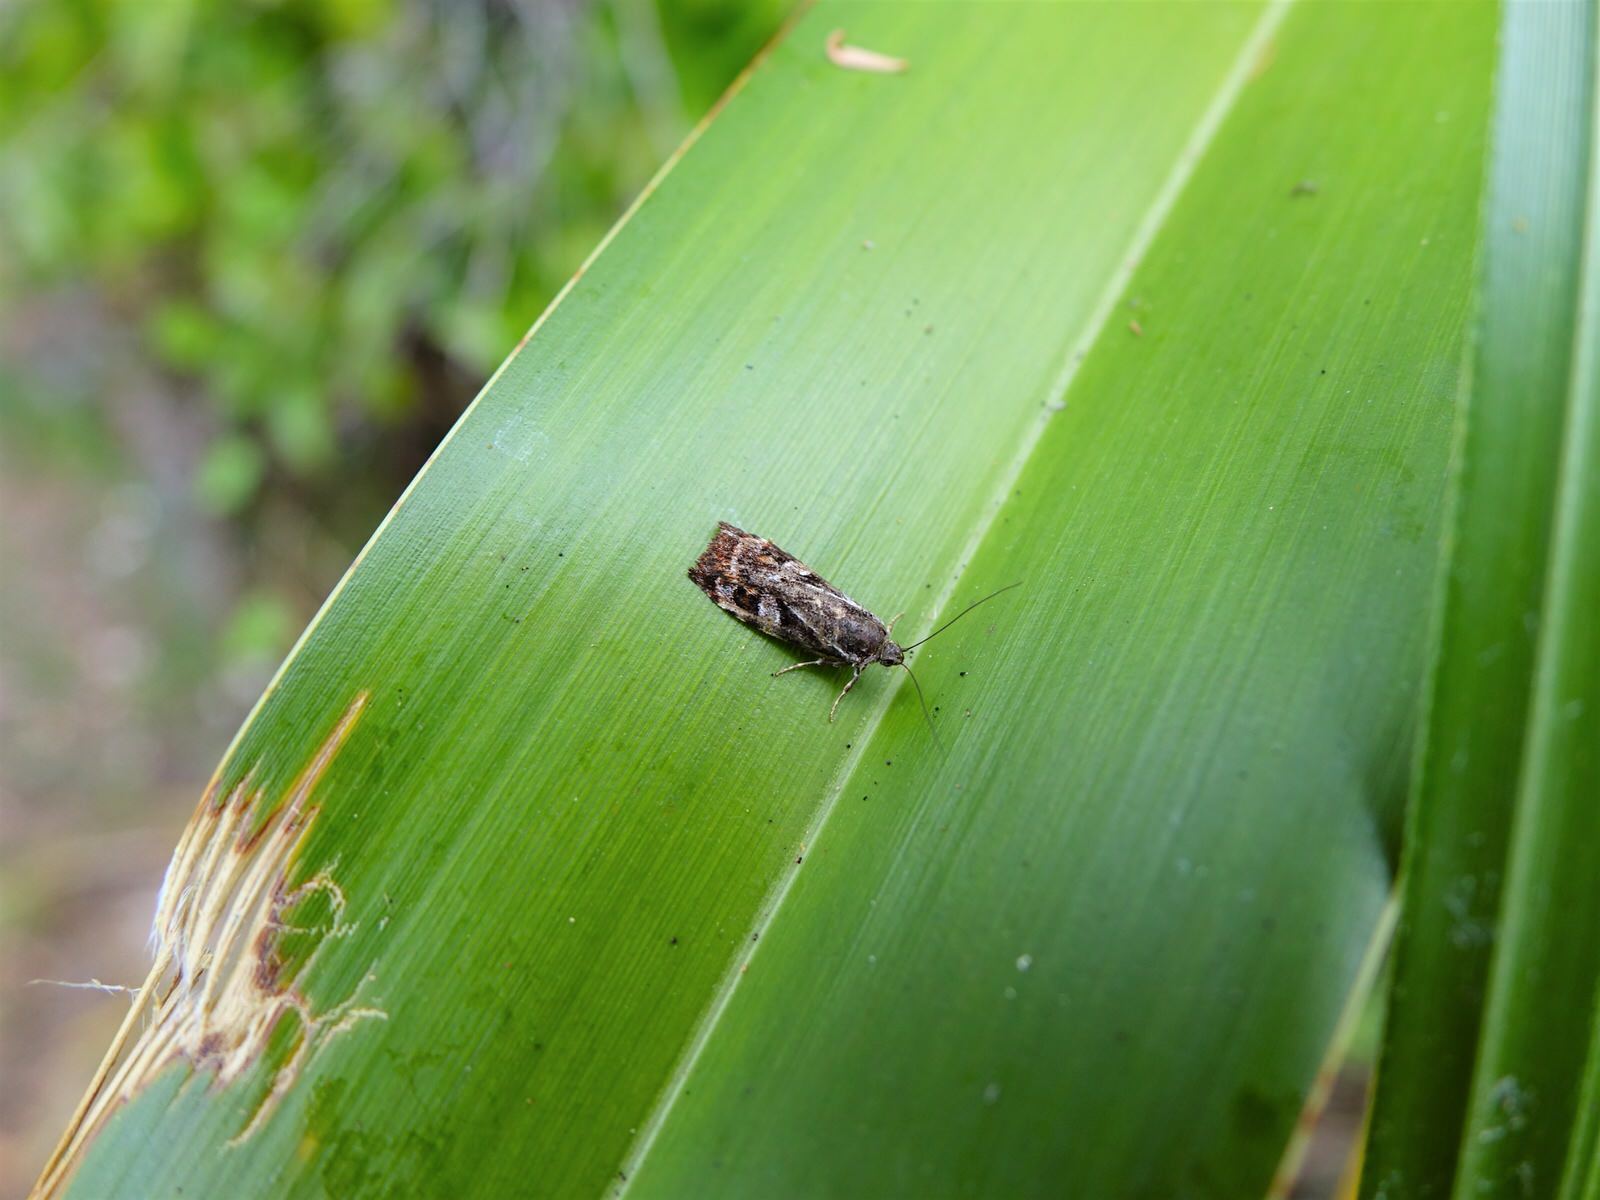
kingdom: Animalia
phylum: Arthropoda
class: Insecta
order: Lepidoptera
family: Oecophoridae
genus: Hierodoris
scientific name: Hierodoris
